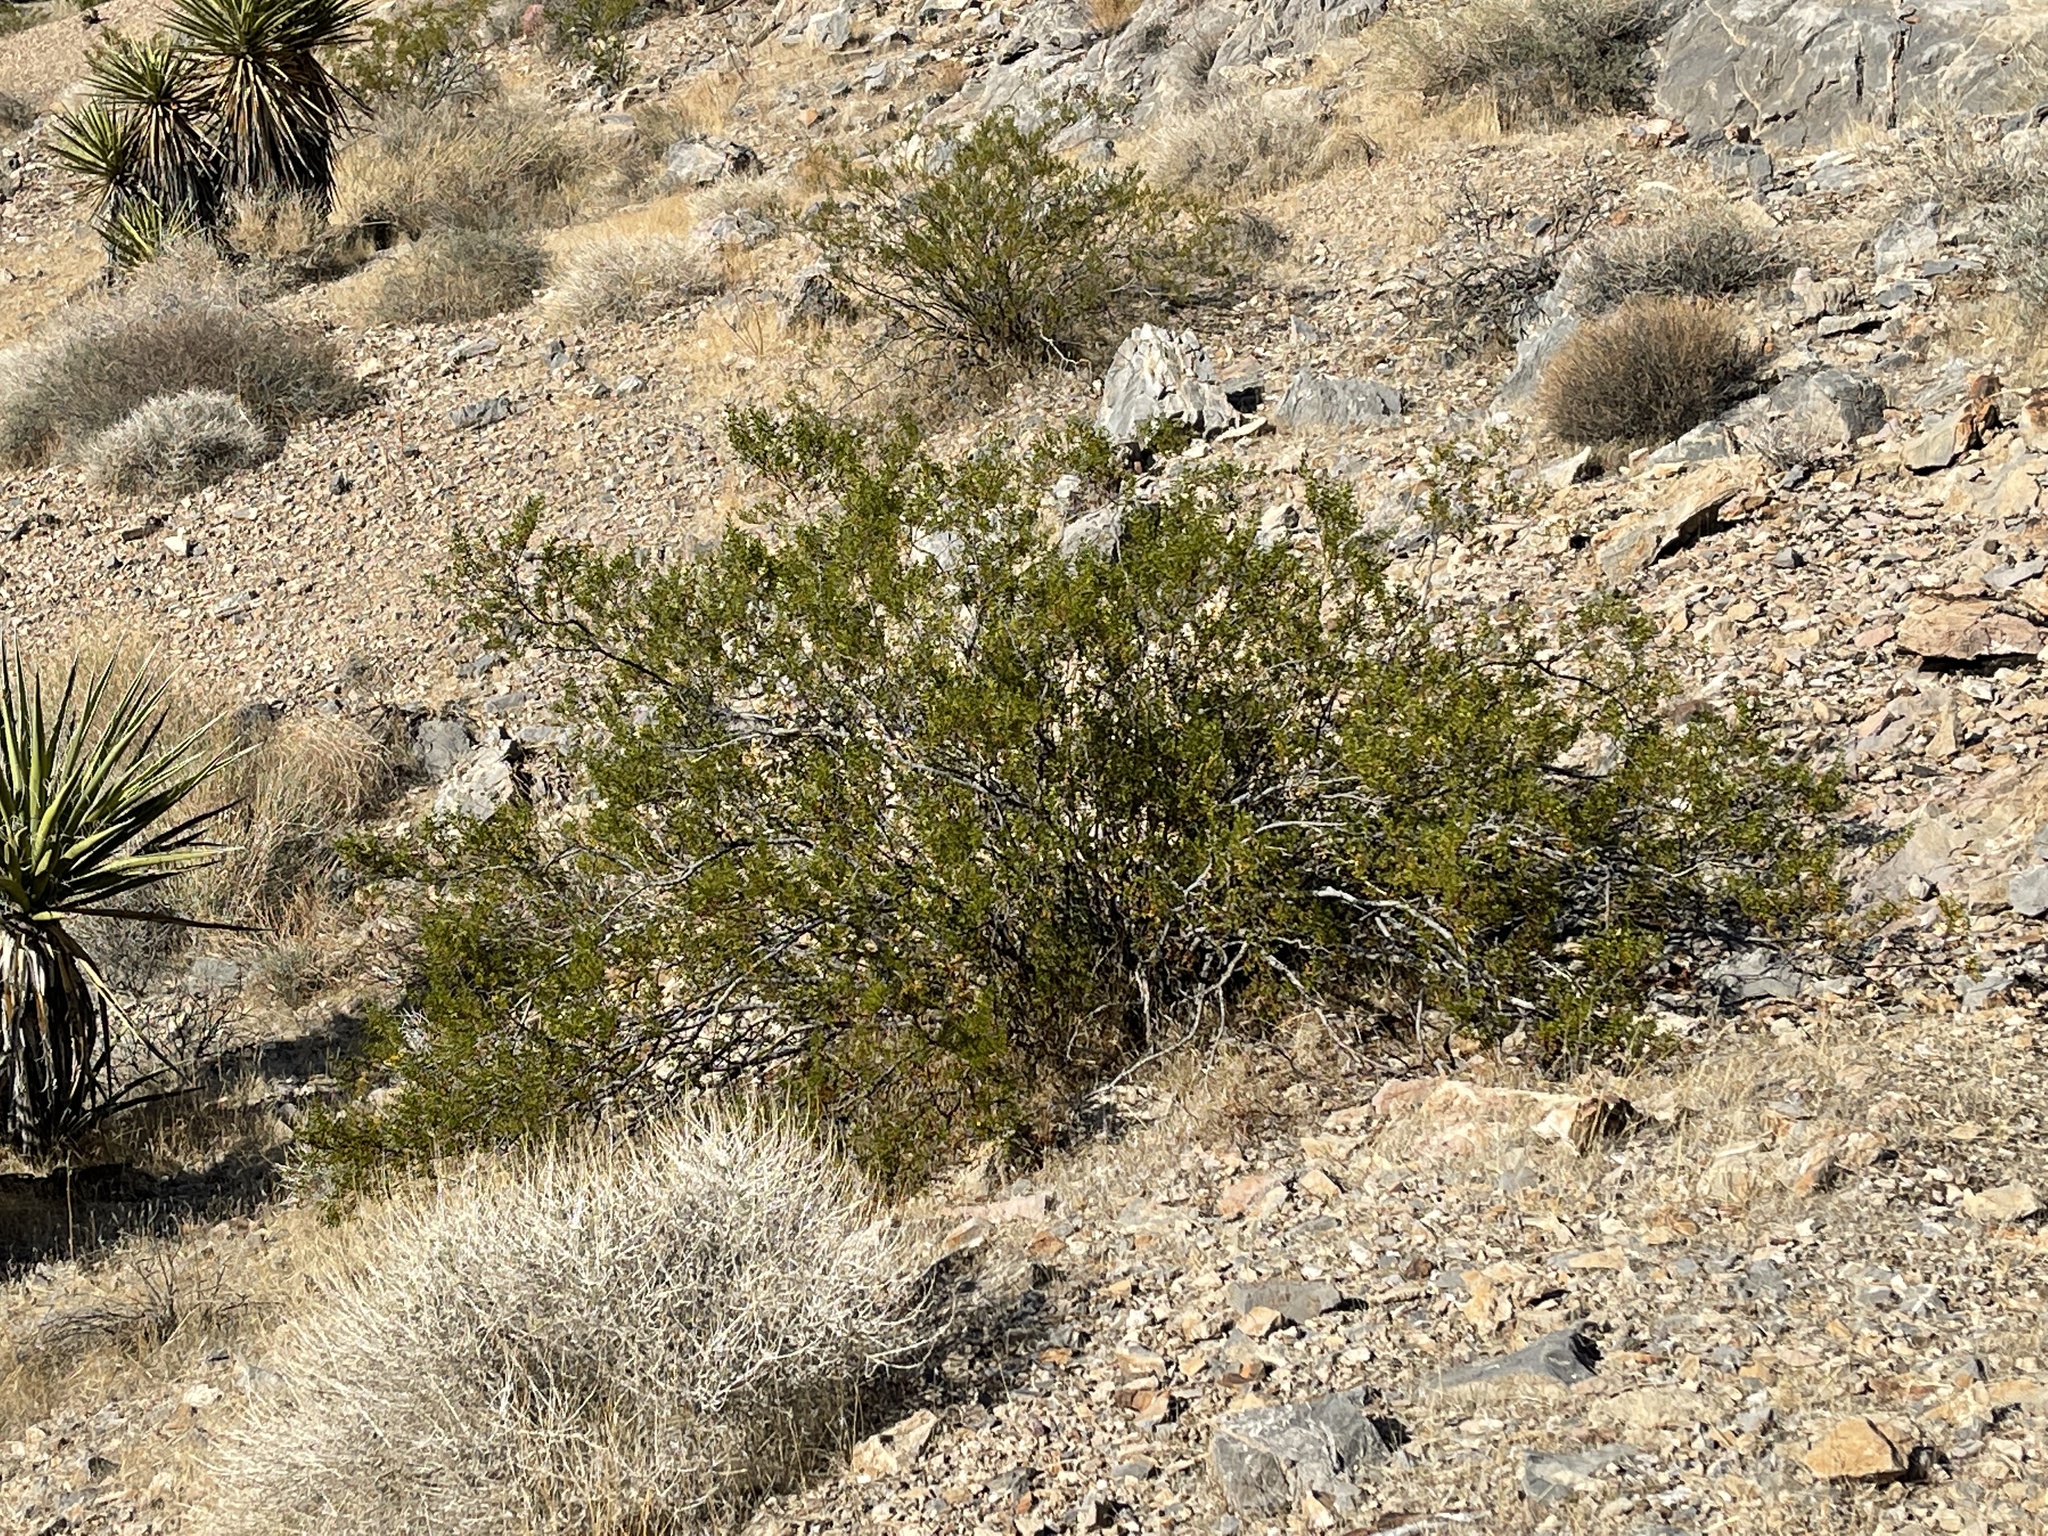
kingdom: Plantae
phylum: Tracheophyta
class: Magnoliopsida
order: Zygophyllales
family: Zygophyllaceae
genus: Larrea
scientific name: Larrea tridentata
